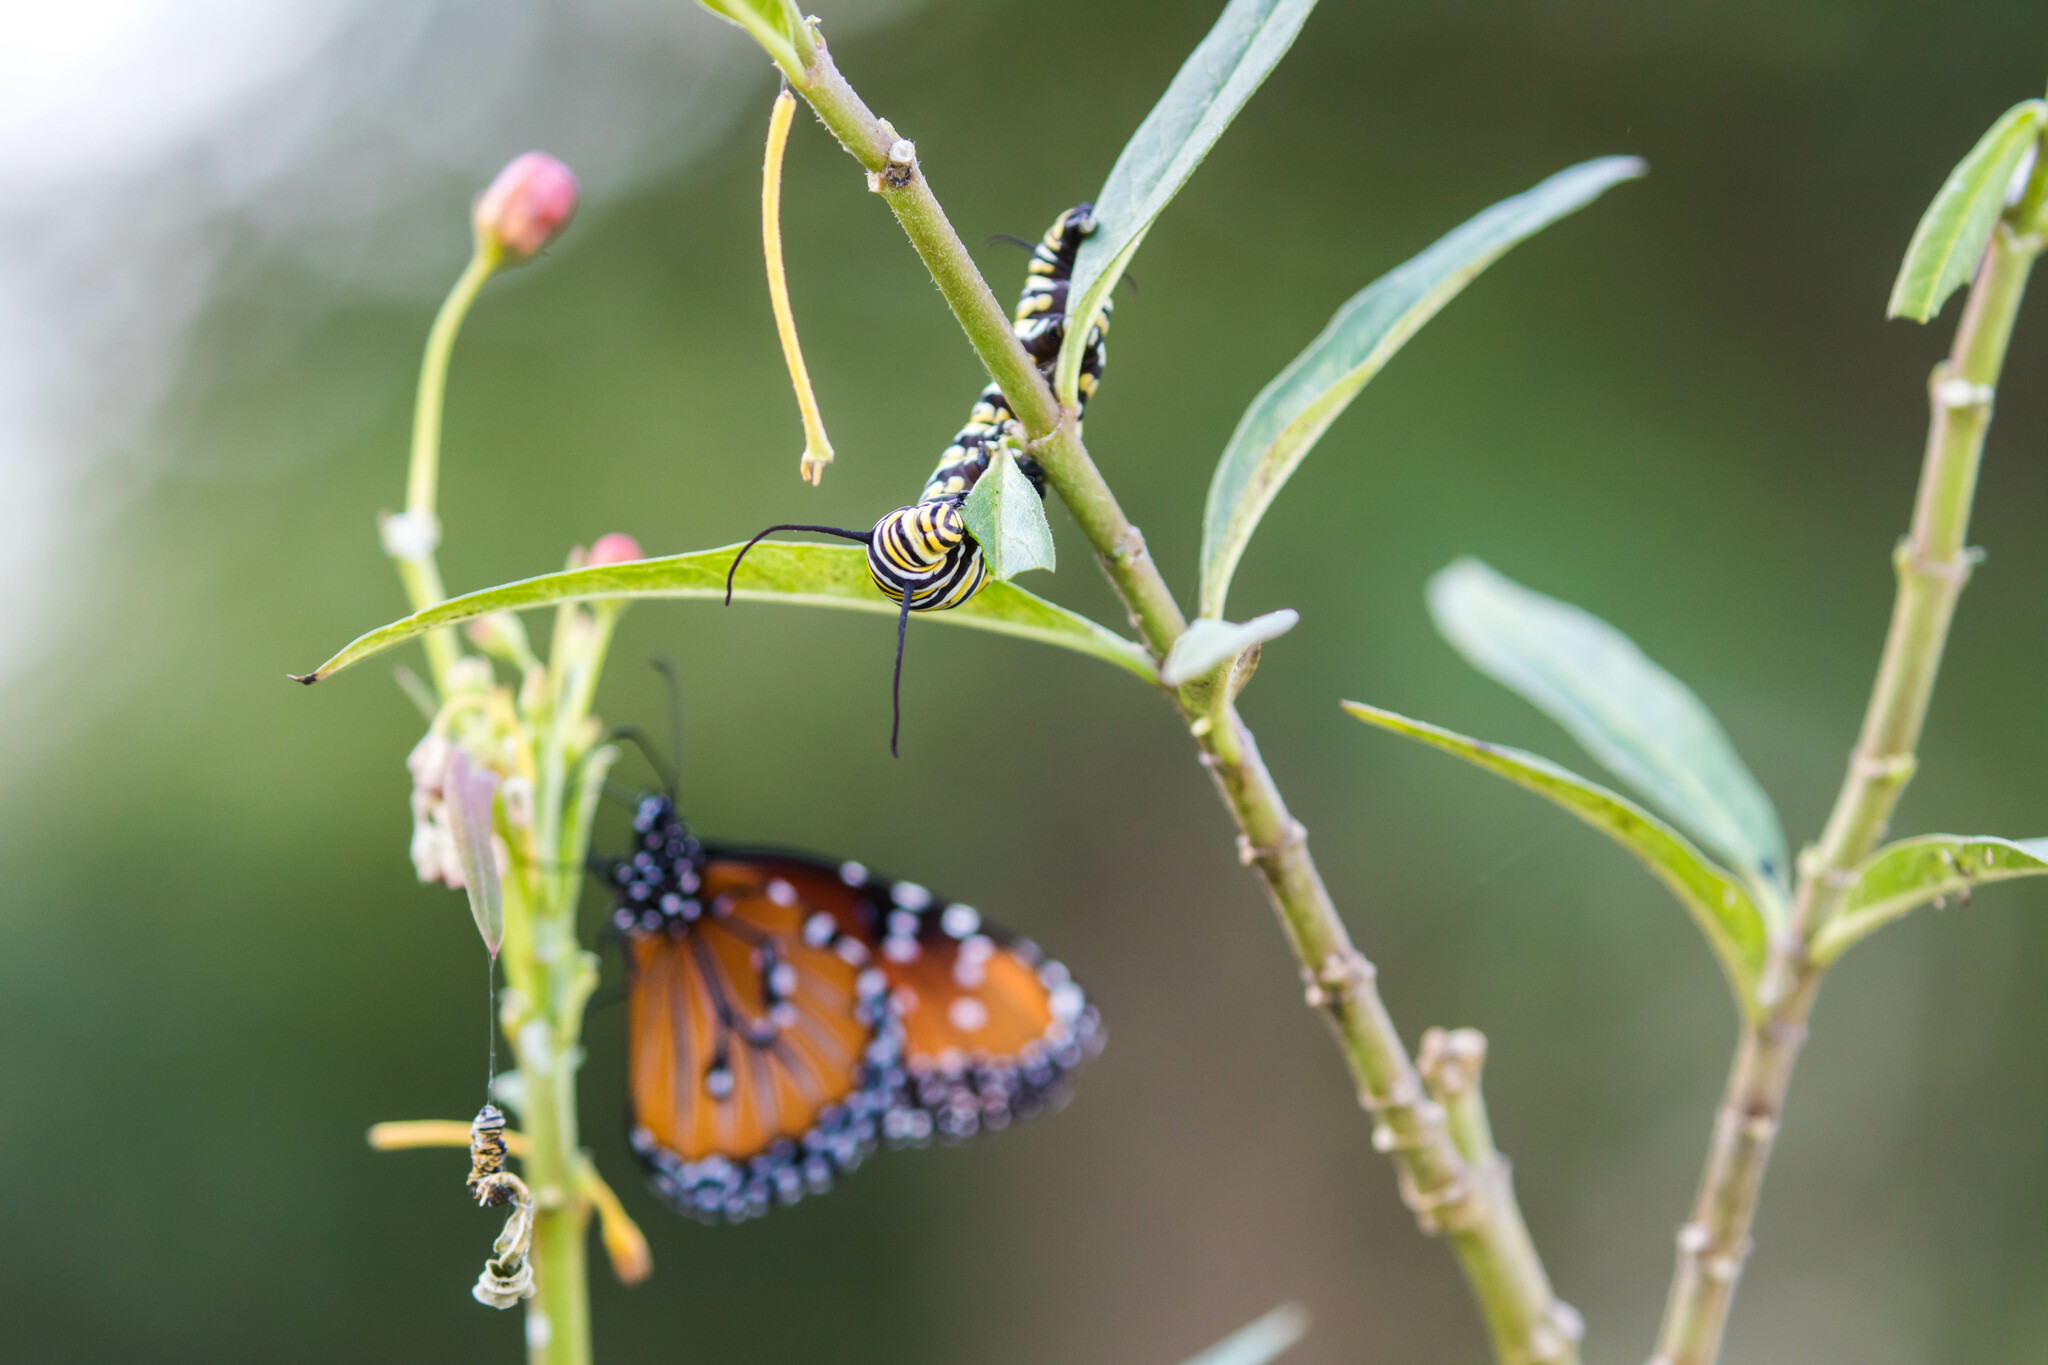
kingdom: Animalia
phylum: Arthropoda
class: Insecta
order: Lepidoptera
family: Nymphalidae
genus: Danaus
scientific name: Danaus plexippus
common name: Monarch
